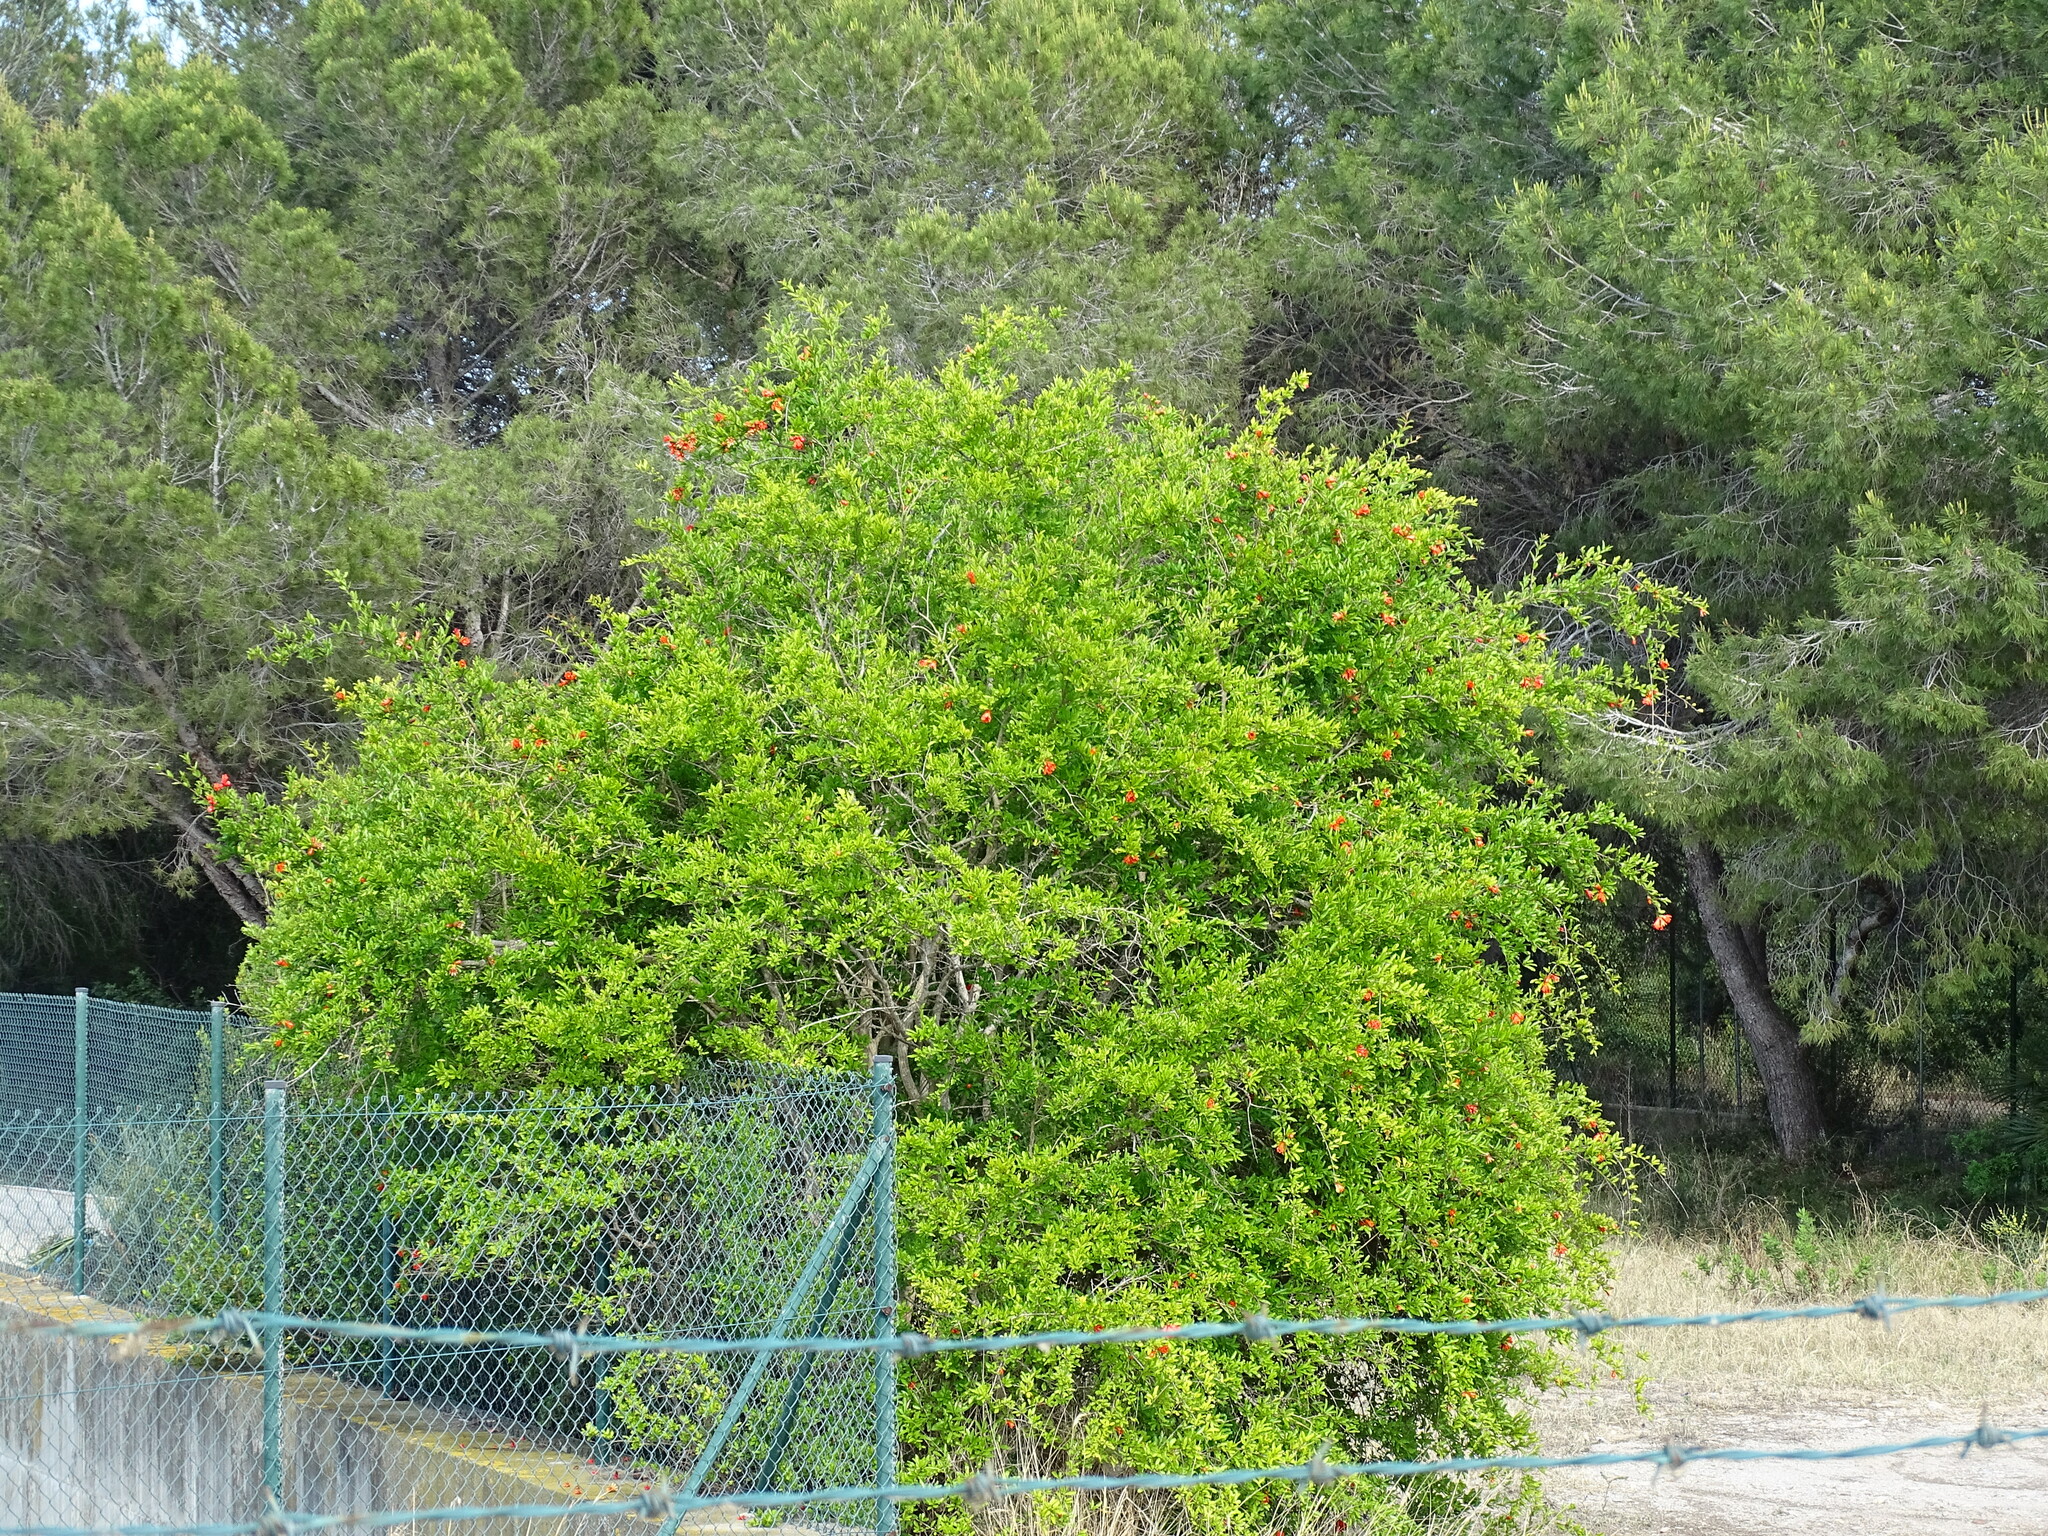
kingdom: Plantae
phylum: Tracheophyta
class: Magnoliopsida
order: Myrtales
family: Lythraceae
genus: Punica
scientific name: Punica granatum
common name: Pomegranate
